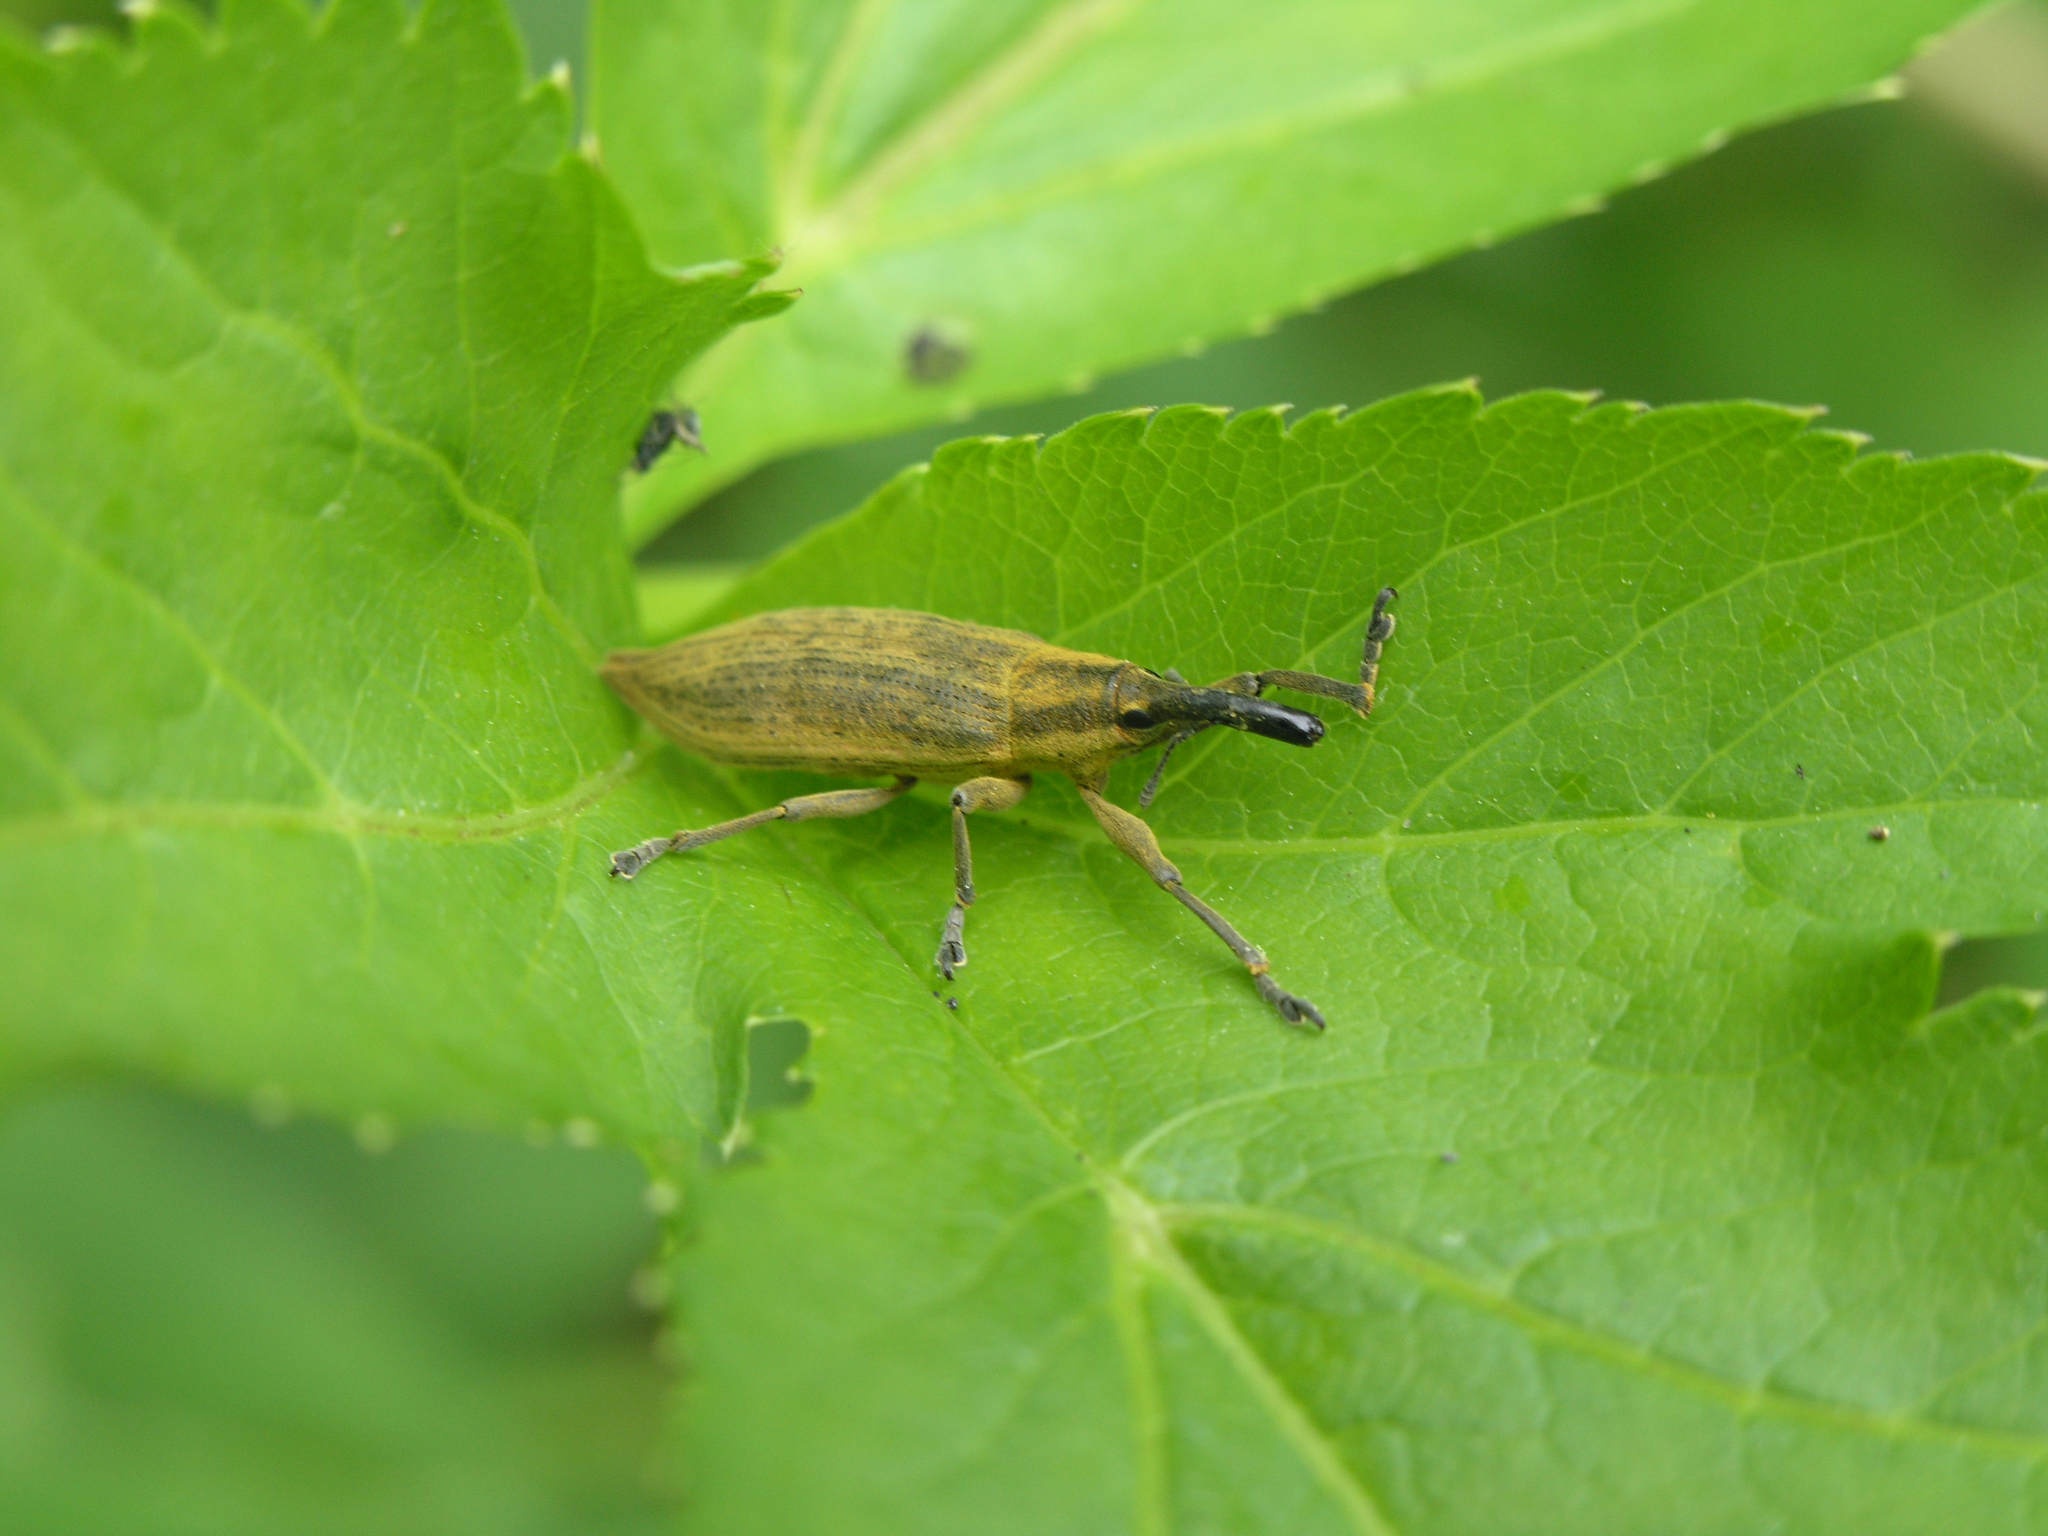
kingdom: Animalia
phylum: Arthropoda
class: Insecta
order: Coleoptera
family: Curculionidae
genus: Lixus
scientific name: Lixus iridis
